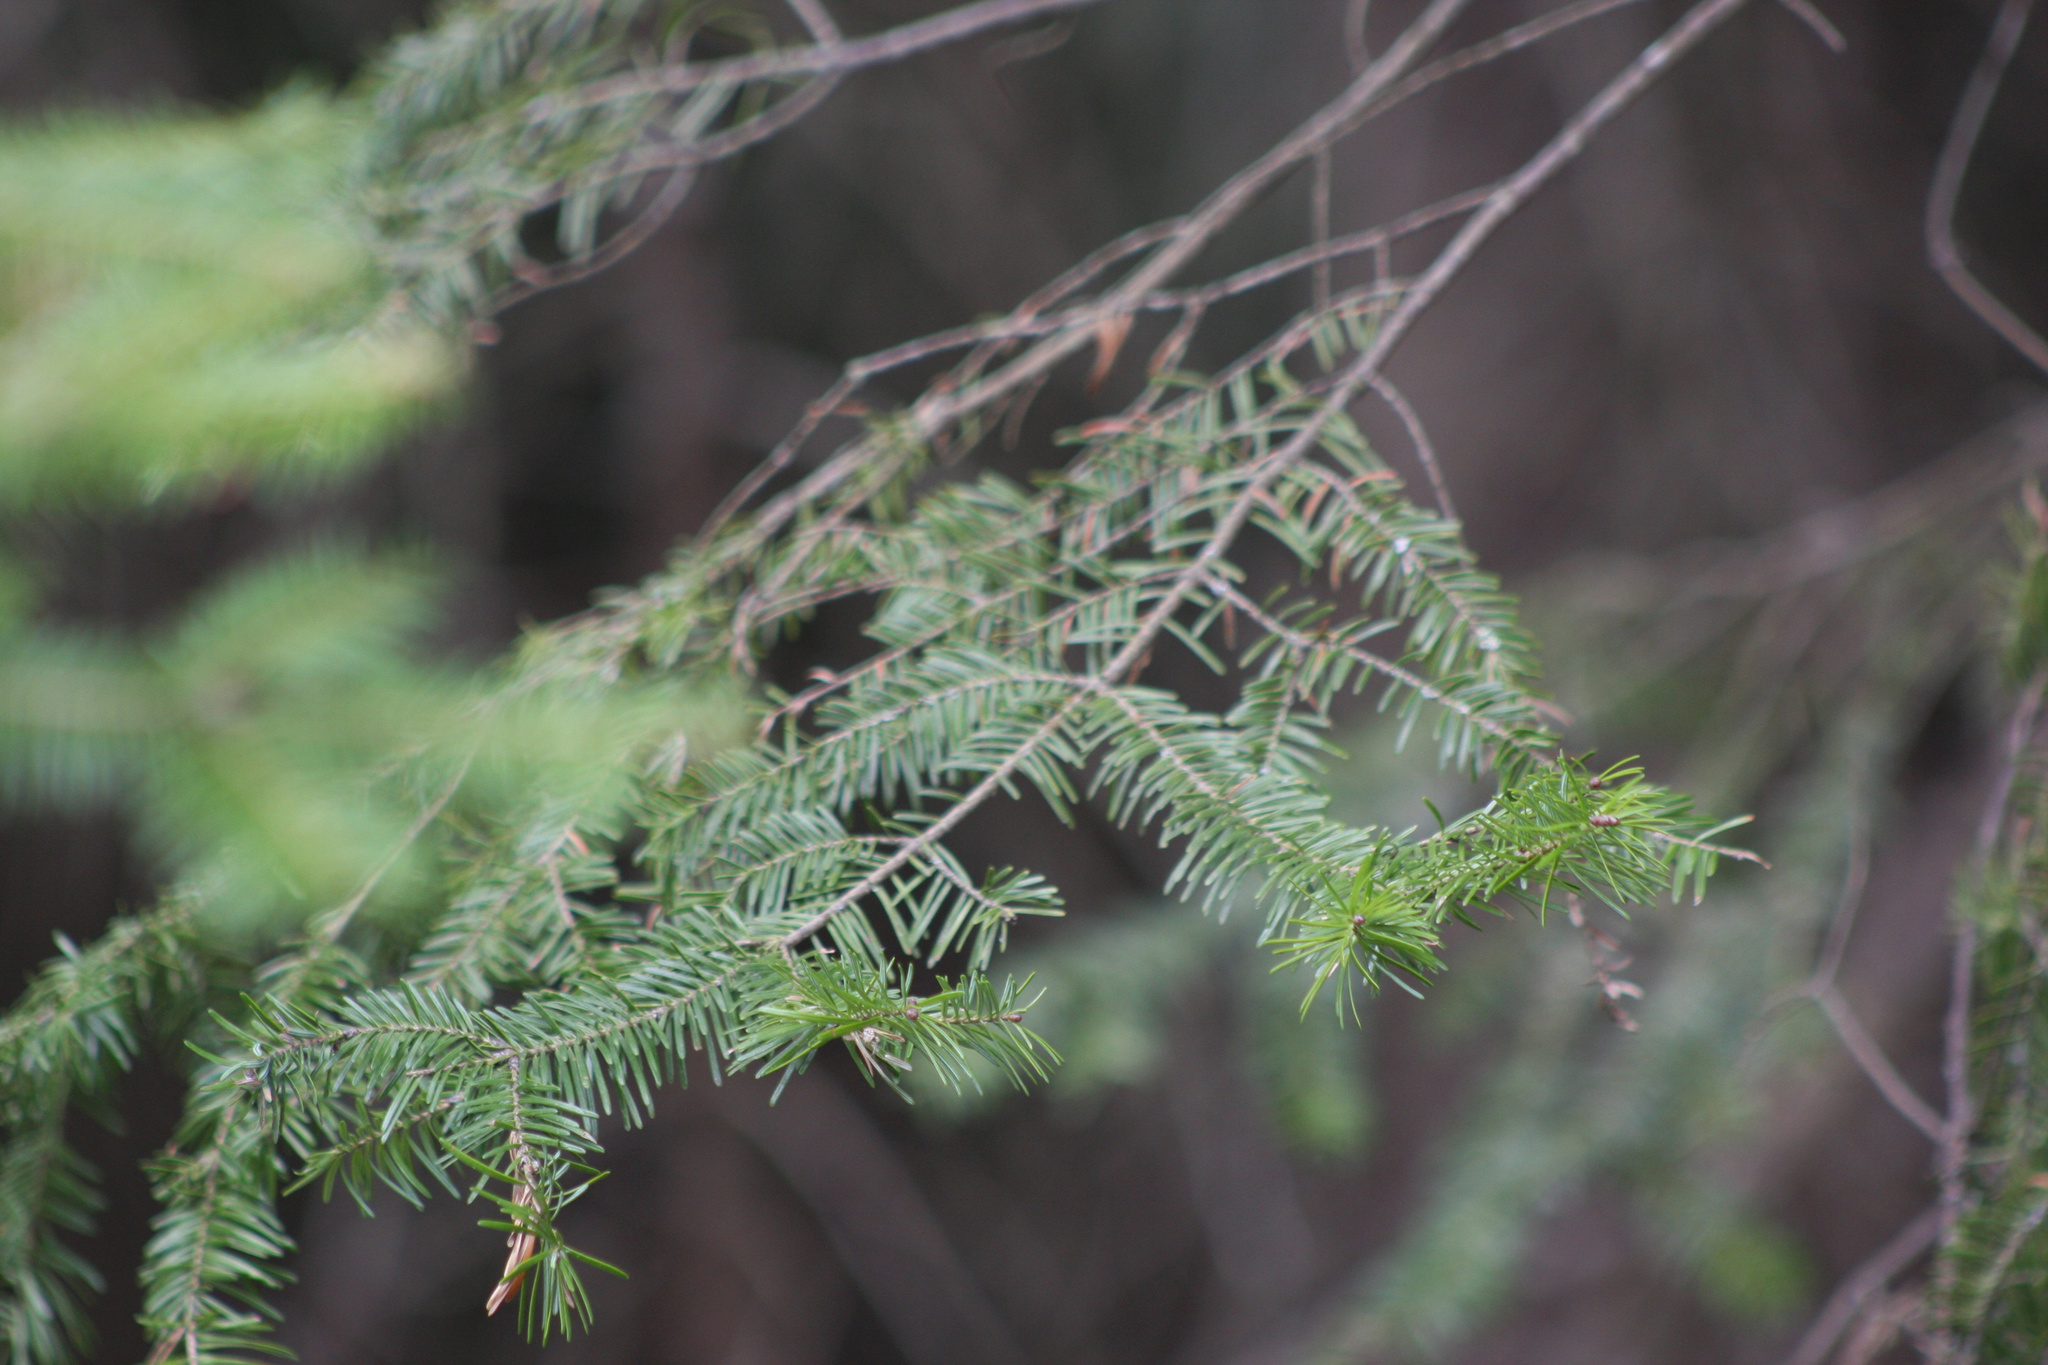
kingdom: Plantae
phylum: Tracheophyta
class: Pinopsida
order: Pinales
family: Pinaceae
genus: Abies
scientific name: Abies balsamea
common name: Balsam fir
